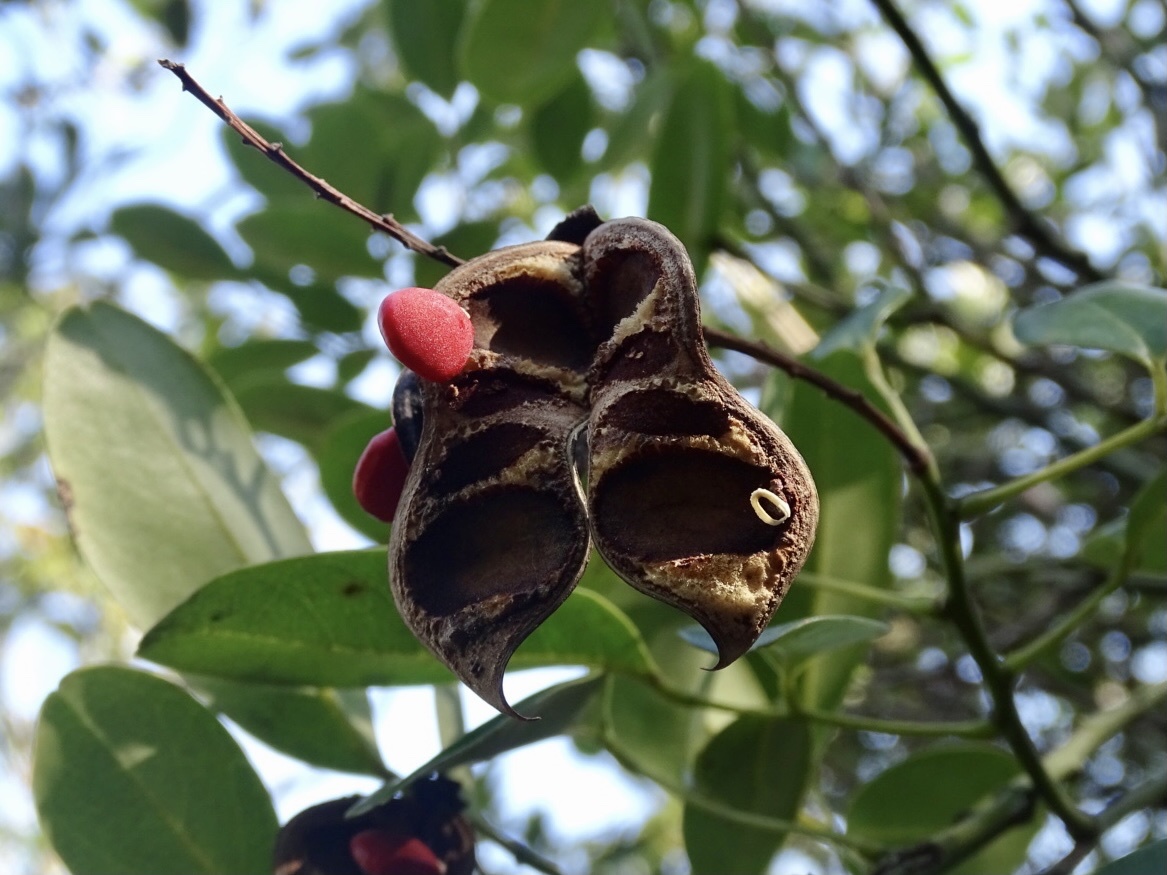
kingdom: Plantae
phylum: Tracheophyta
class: Magnoliopsida
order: Fabales
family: Fabaceae
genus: Ormosia
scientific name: Ormosia emarginata
